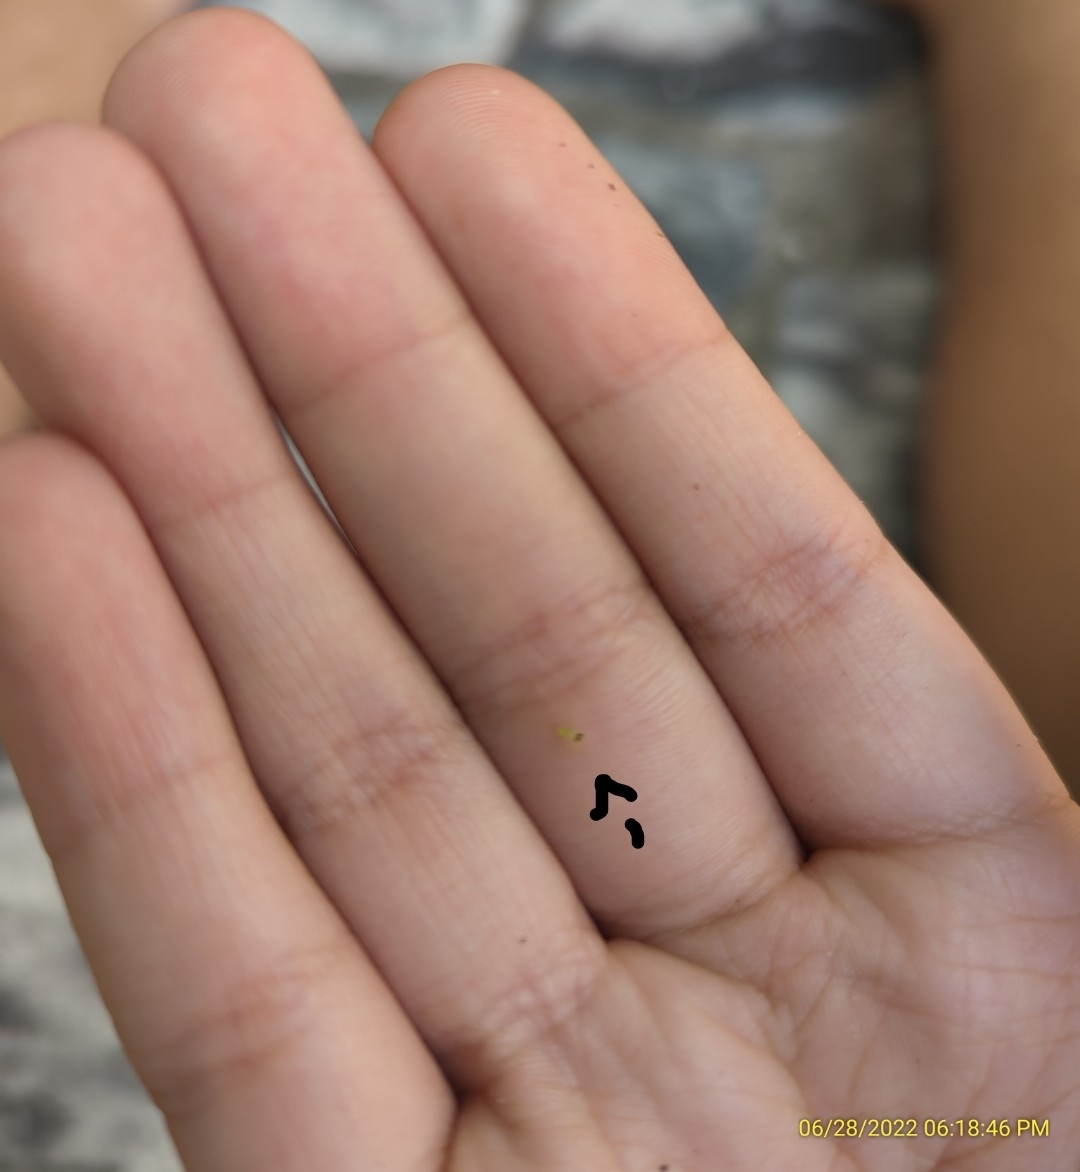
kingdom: Animalia
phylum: Arthropoda
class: Arachnida
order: Araneae
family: Salticidae
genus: Lyssomanes
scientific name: Lyssomanes viridis
